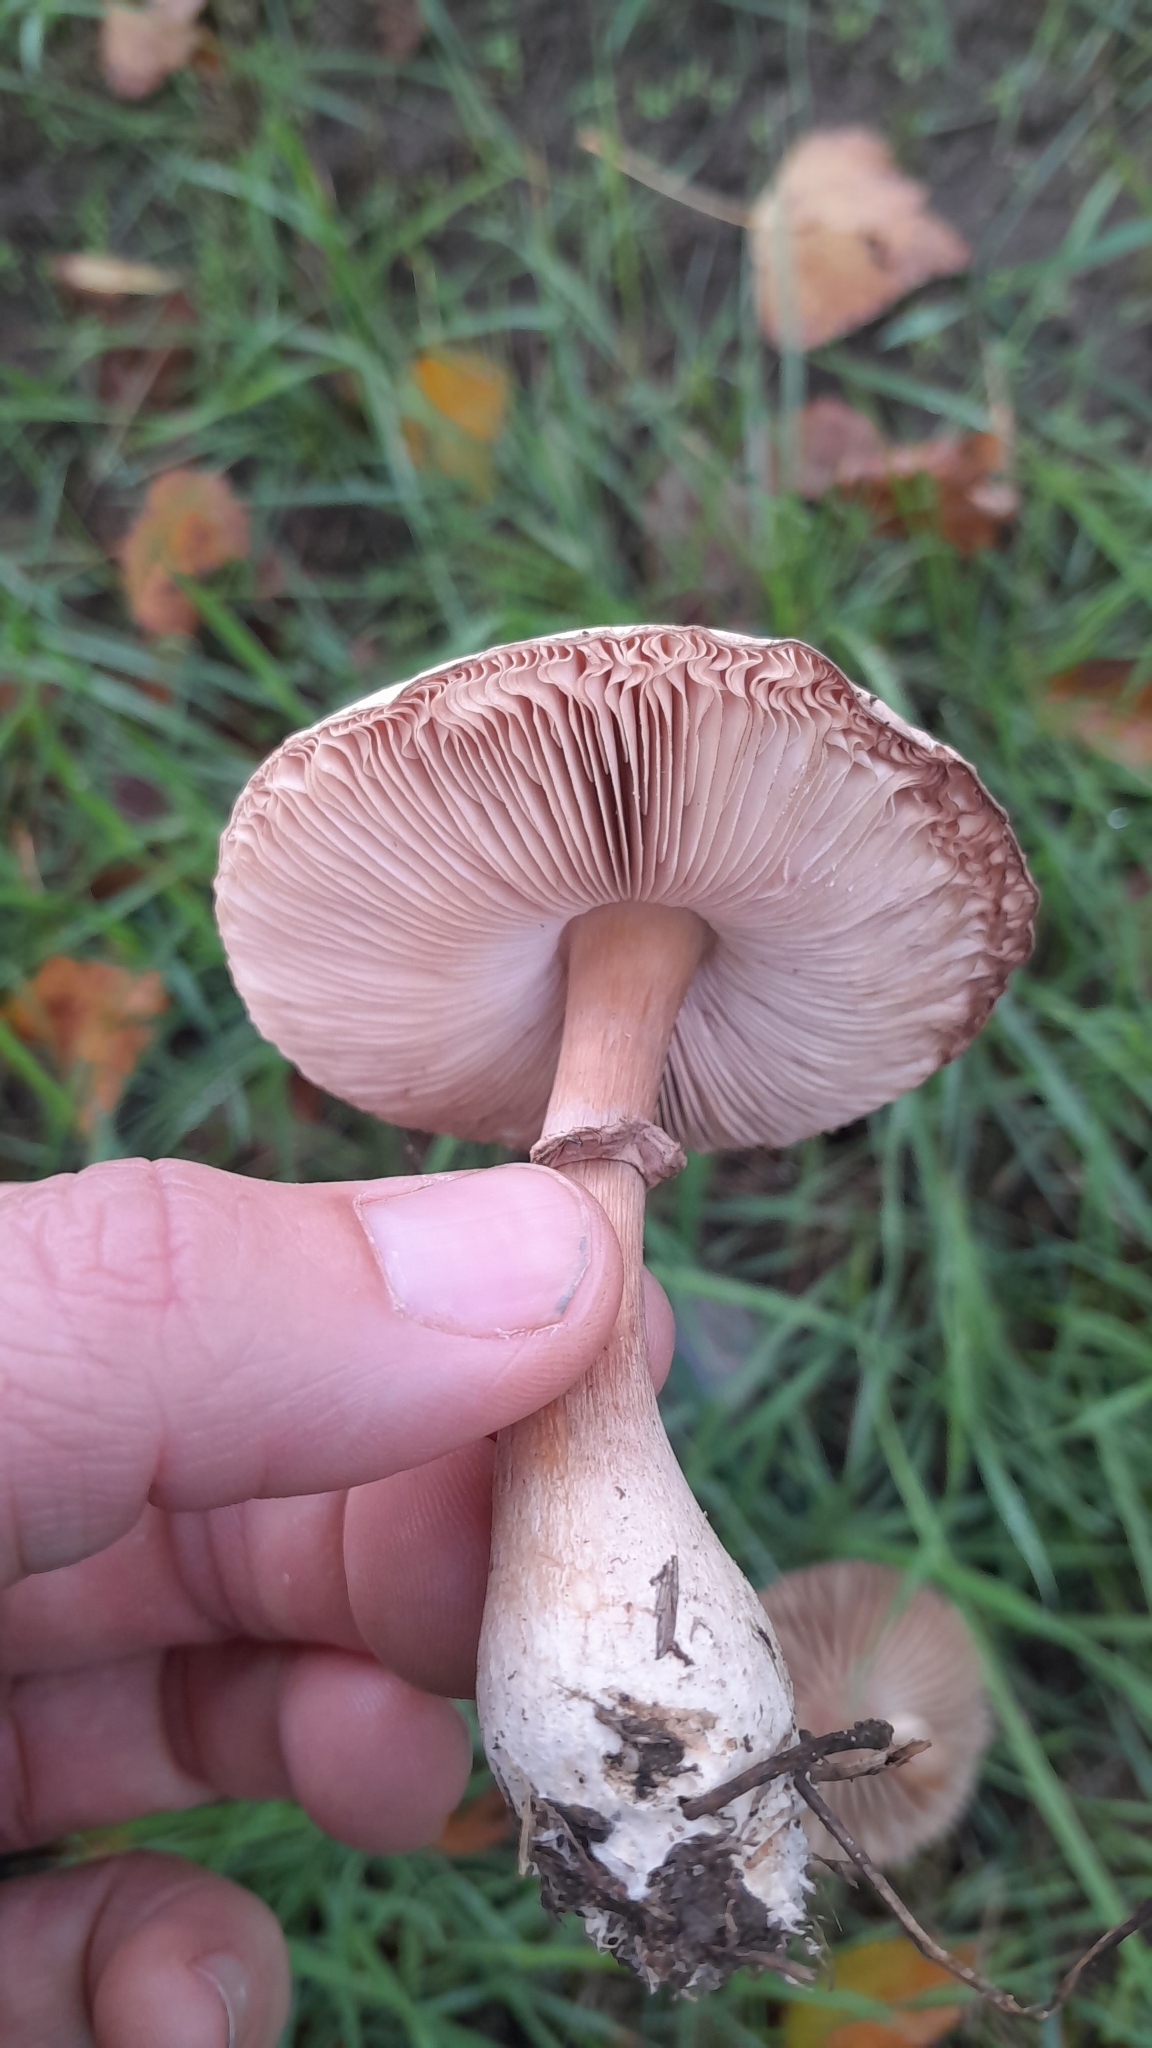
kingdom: Fungi
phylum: Basidiomycota
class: Agaricomycetes
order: Agaricales
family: Agaricaceae
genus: Leucoagaricus
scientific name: Leucoagaricus leucothites
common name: White dapperling
